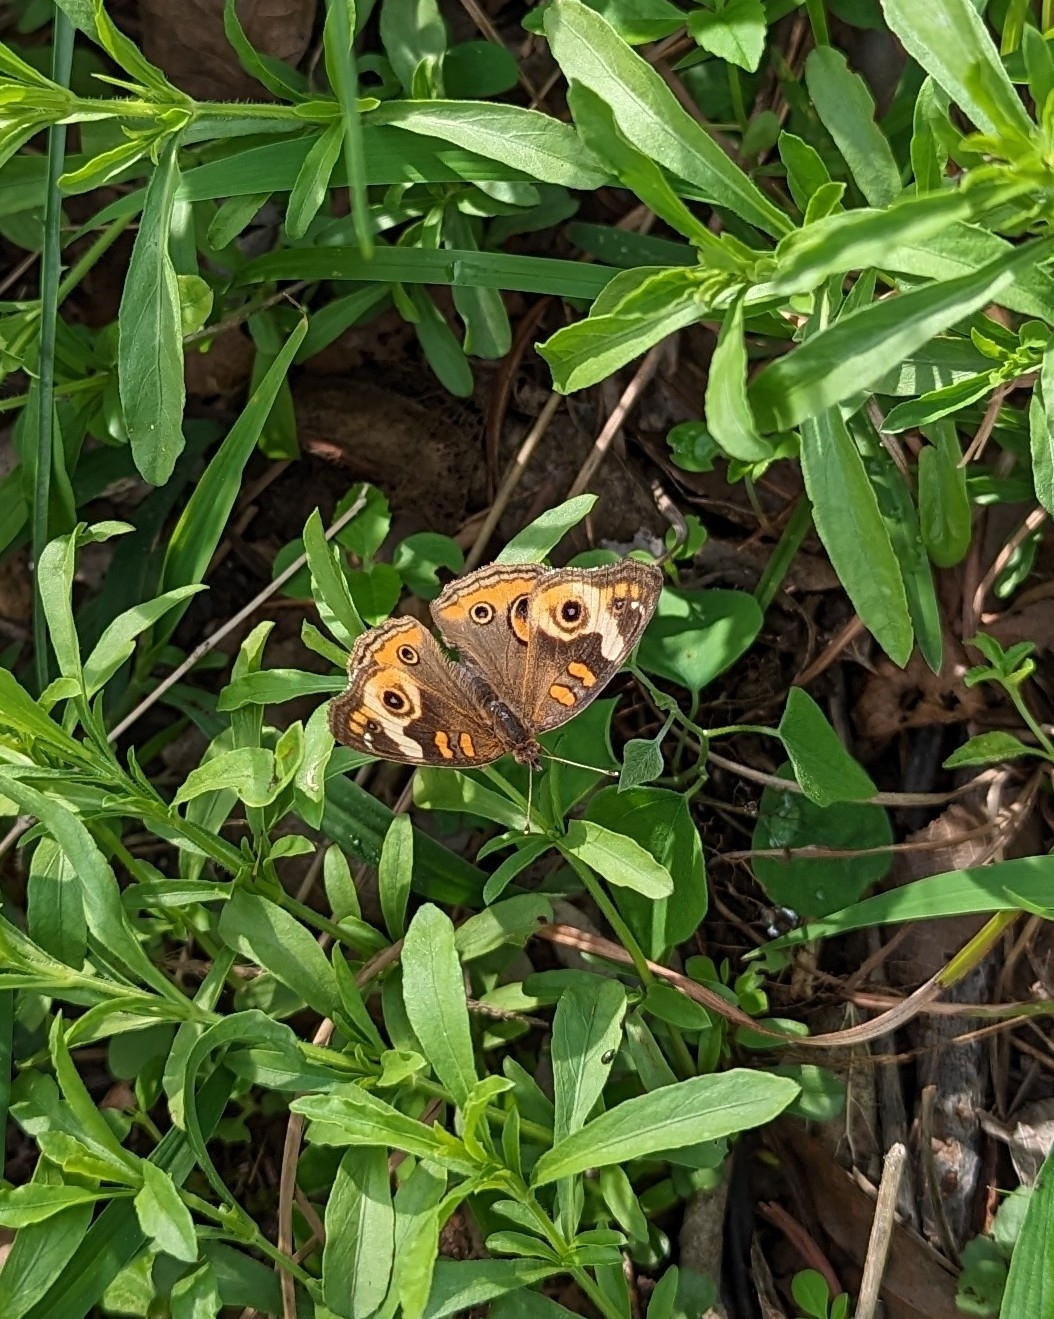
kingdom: Animalia
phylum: Arthropoda
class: Insecta
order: Lepidoptera
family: Nymphalidae
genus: Junonia
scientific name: Junonia coenia
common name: Common buckeye
